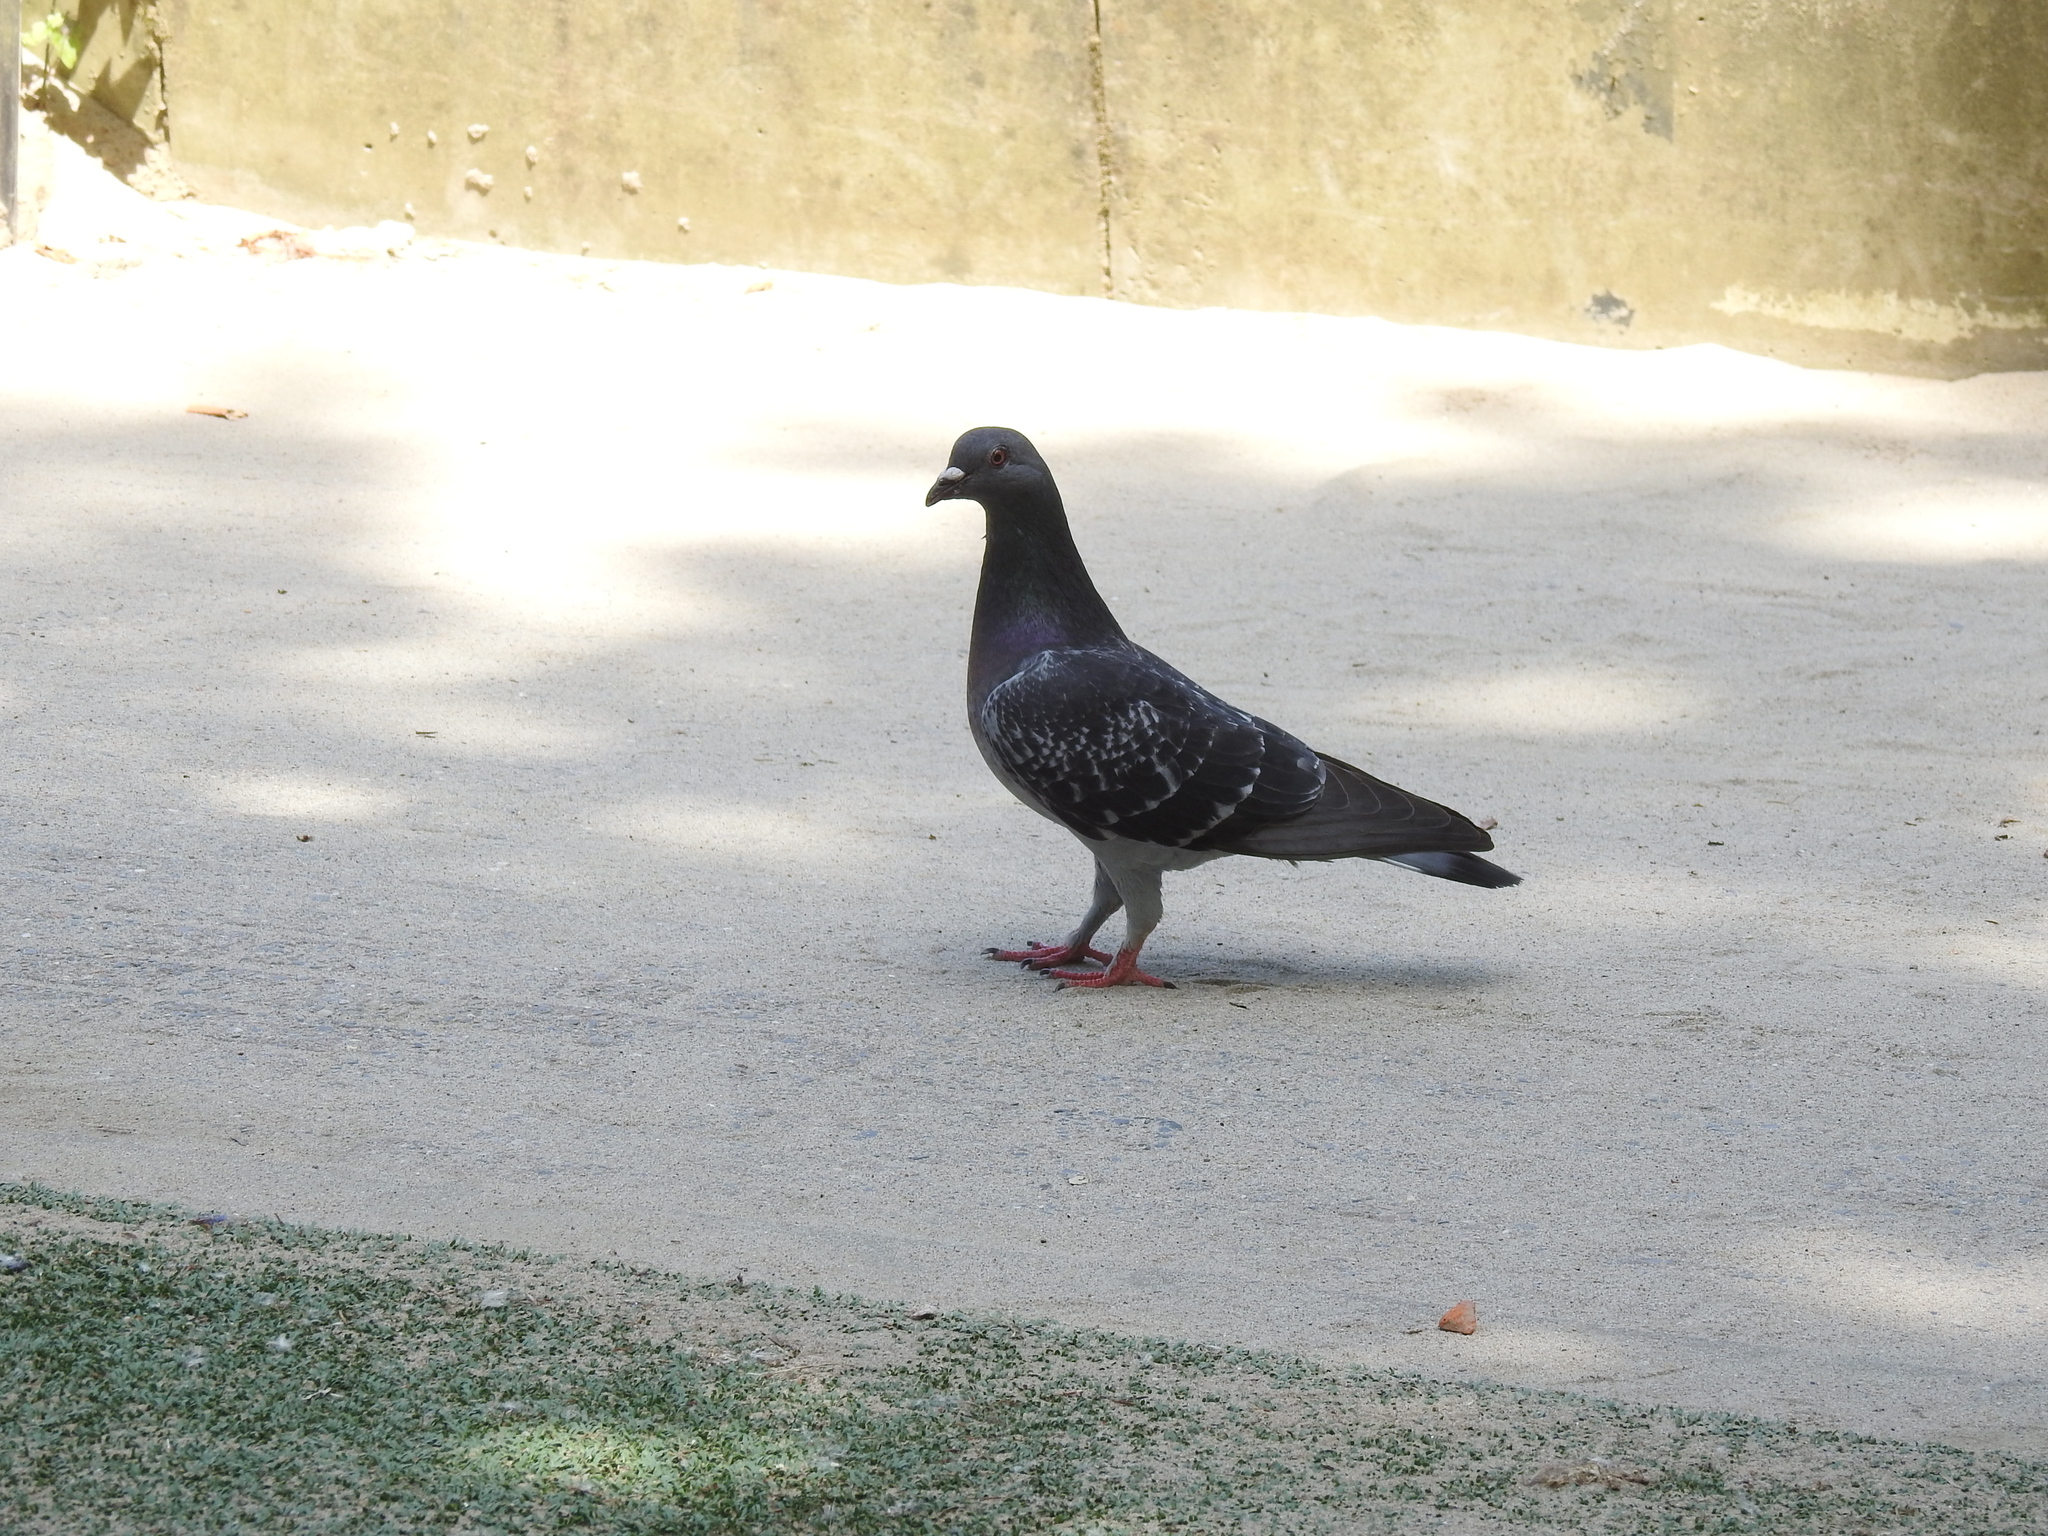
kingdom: Animalia
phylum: Chordata
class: Aves
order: Columbiformes
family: Columbidae
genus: Columba
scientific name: Columba livia
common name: Rock pigeon
